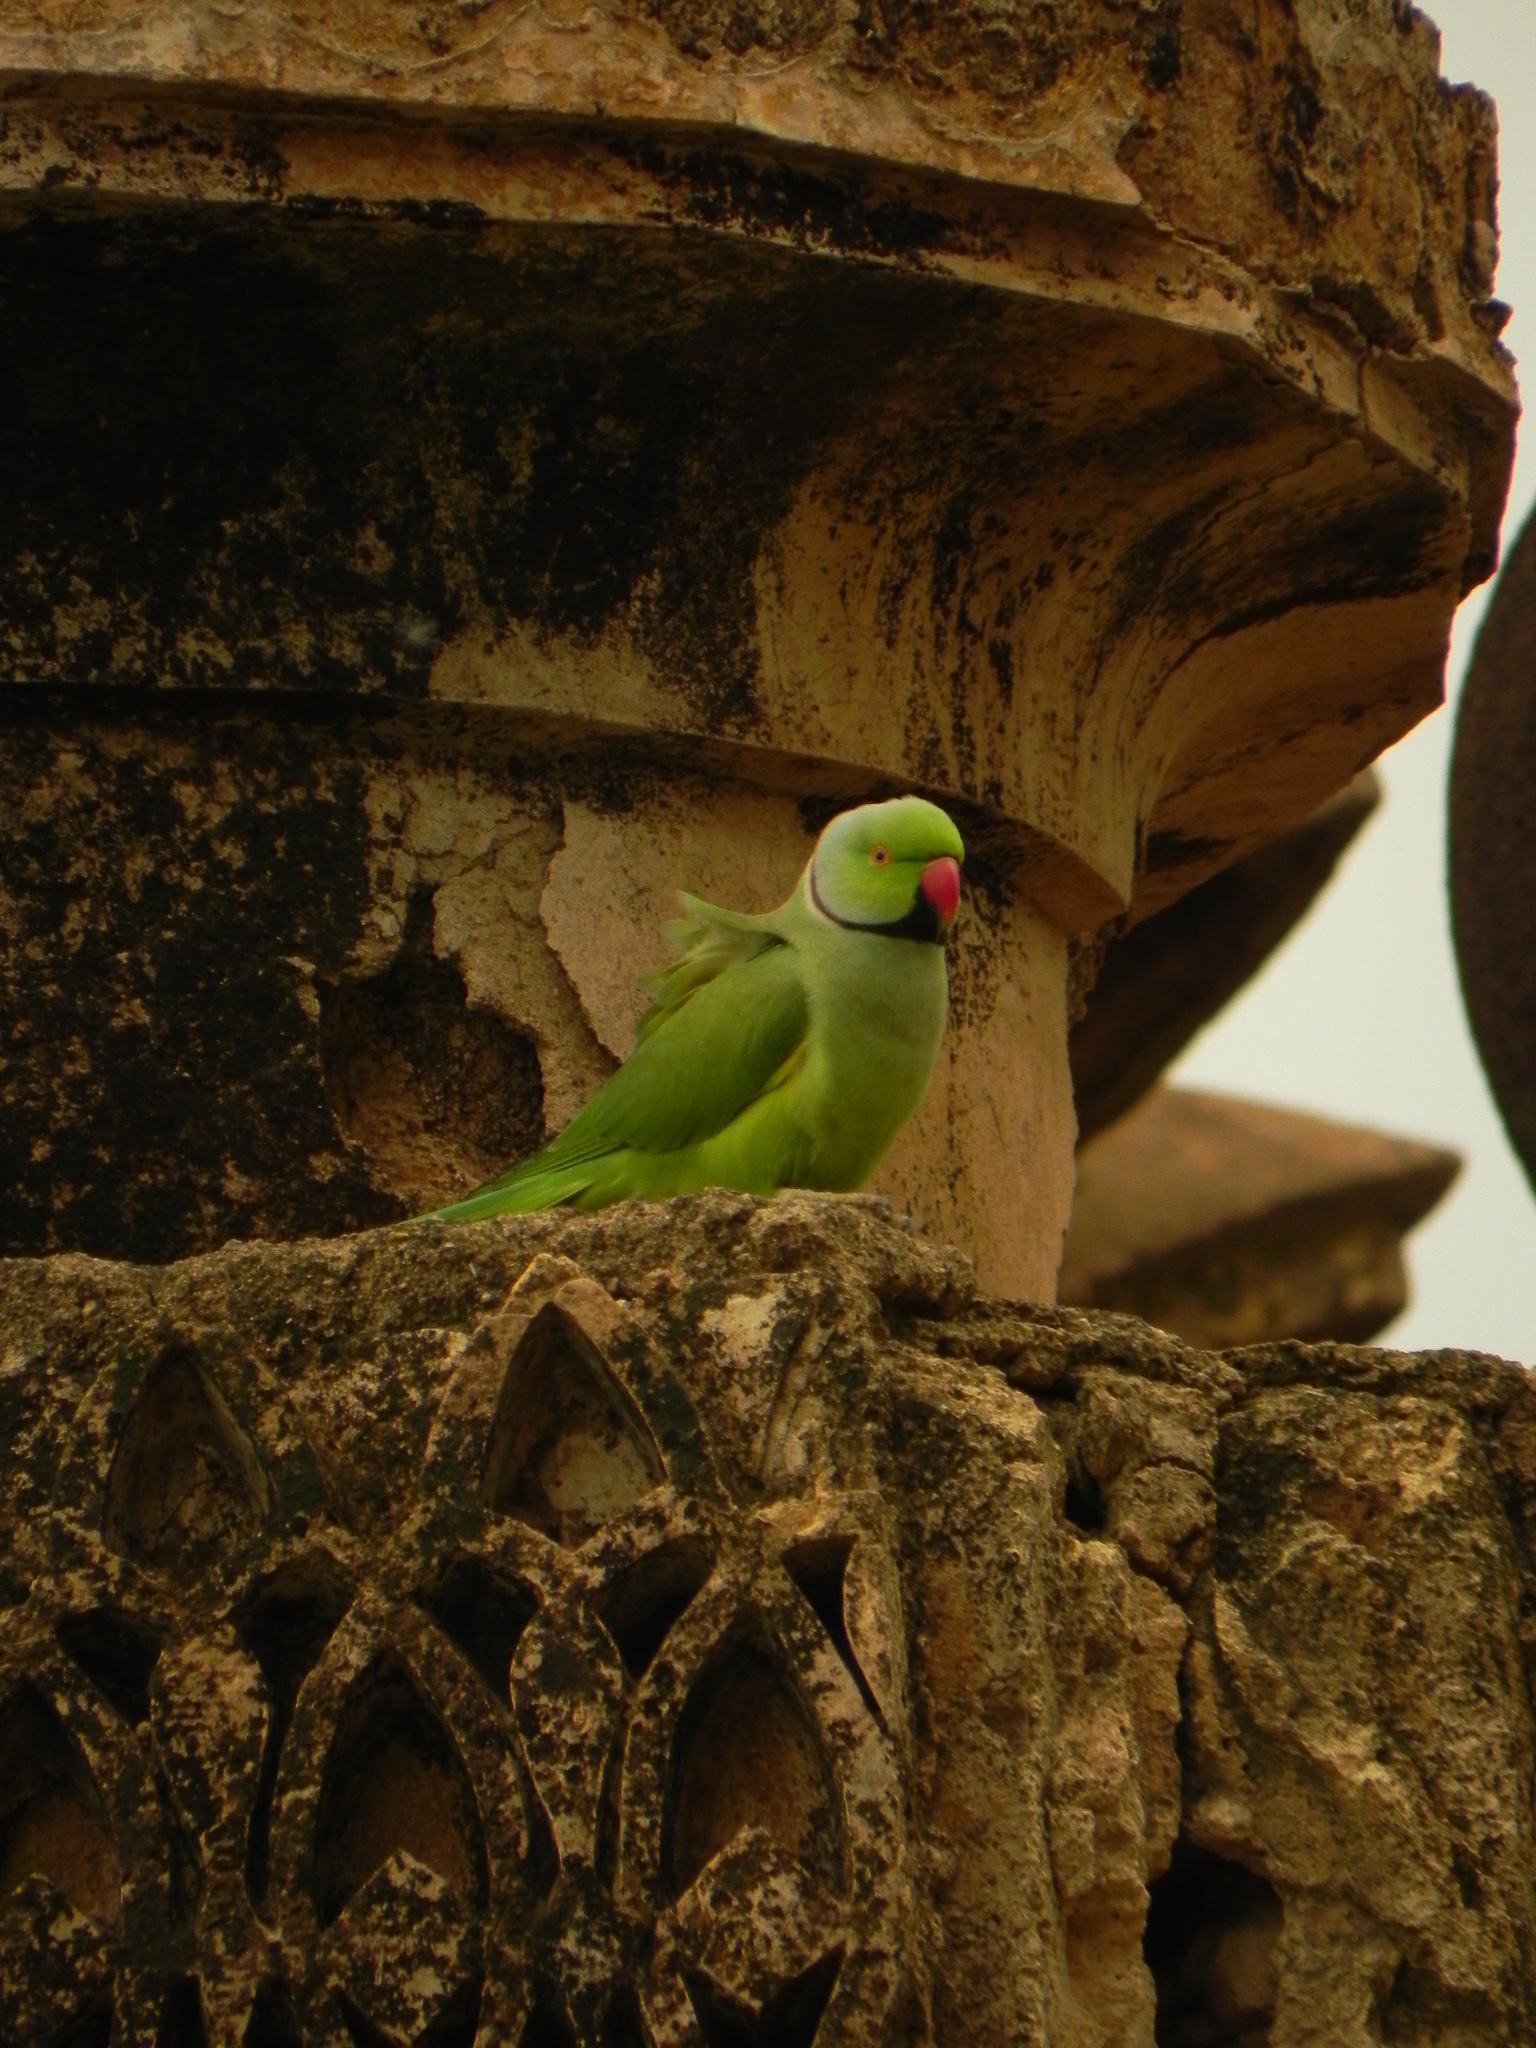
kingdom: Animalia
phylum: Chordata
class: Aves
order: Psittaciformes
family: Psittacidae
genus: Psittacula
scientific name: Psittacula krameri
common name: Rose-ringed parakeet
